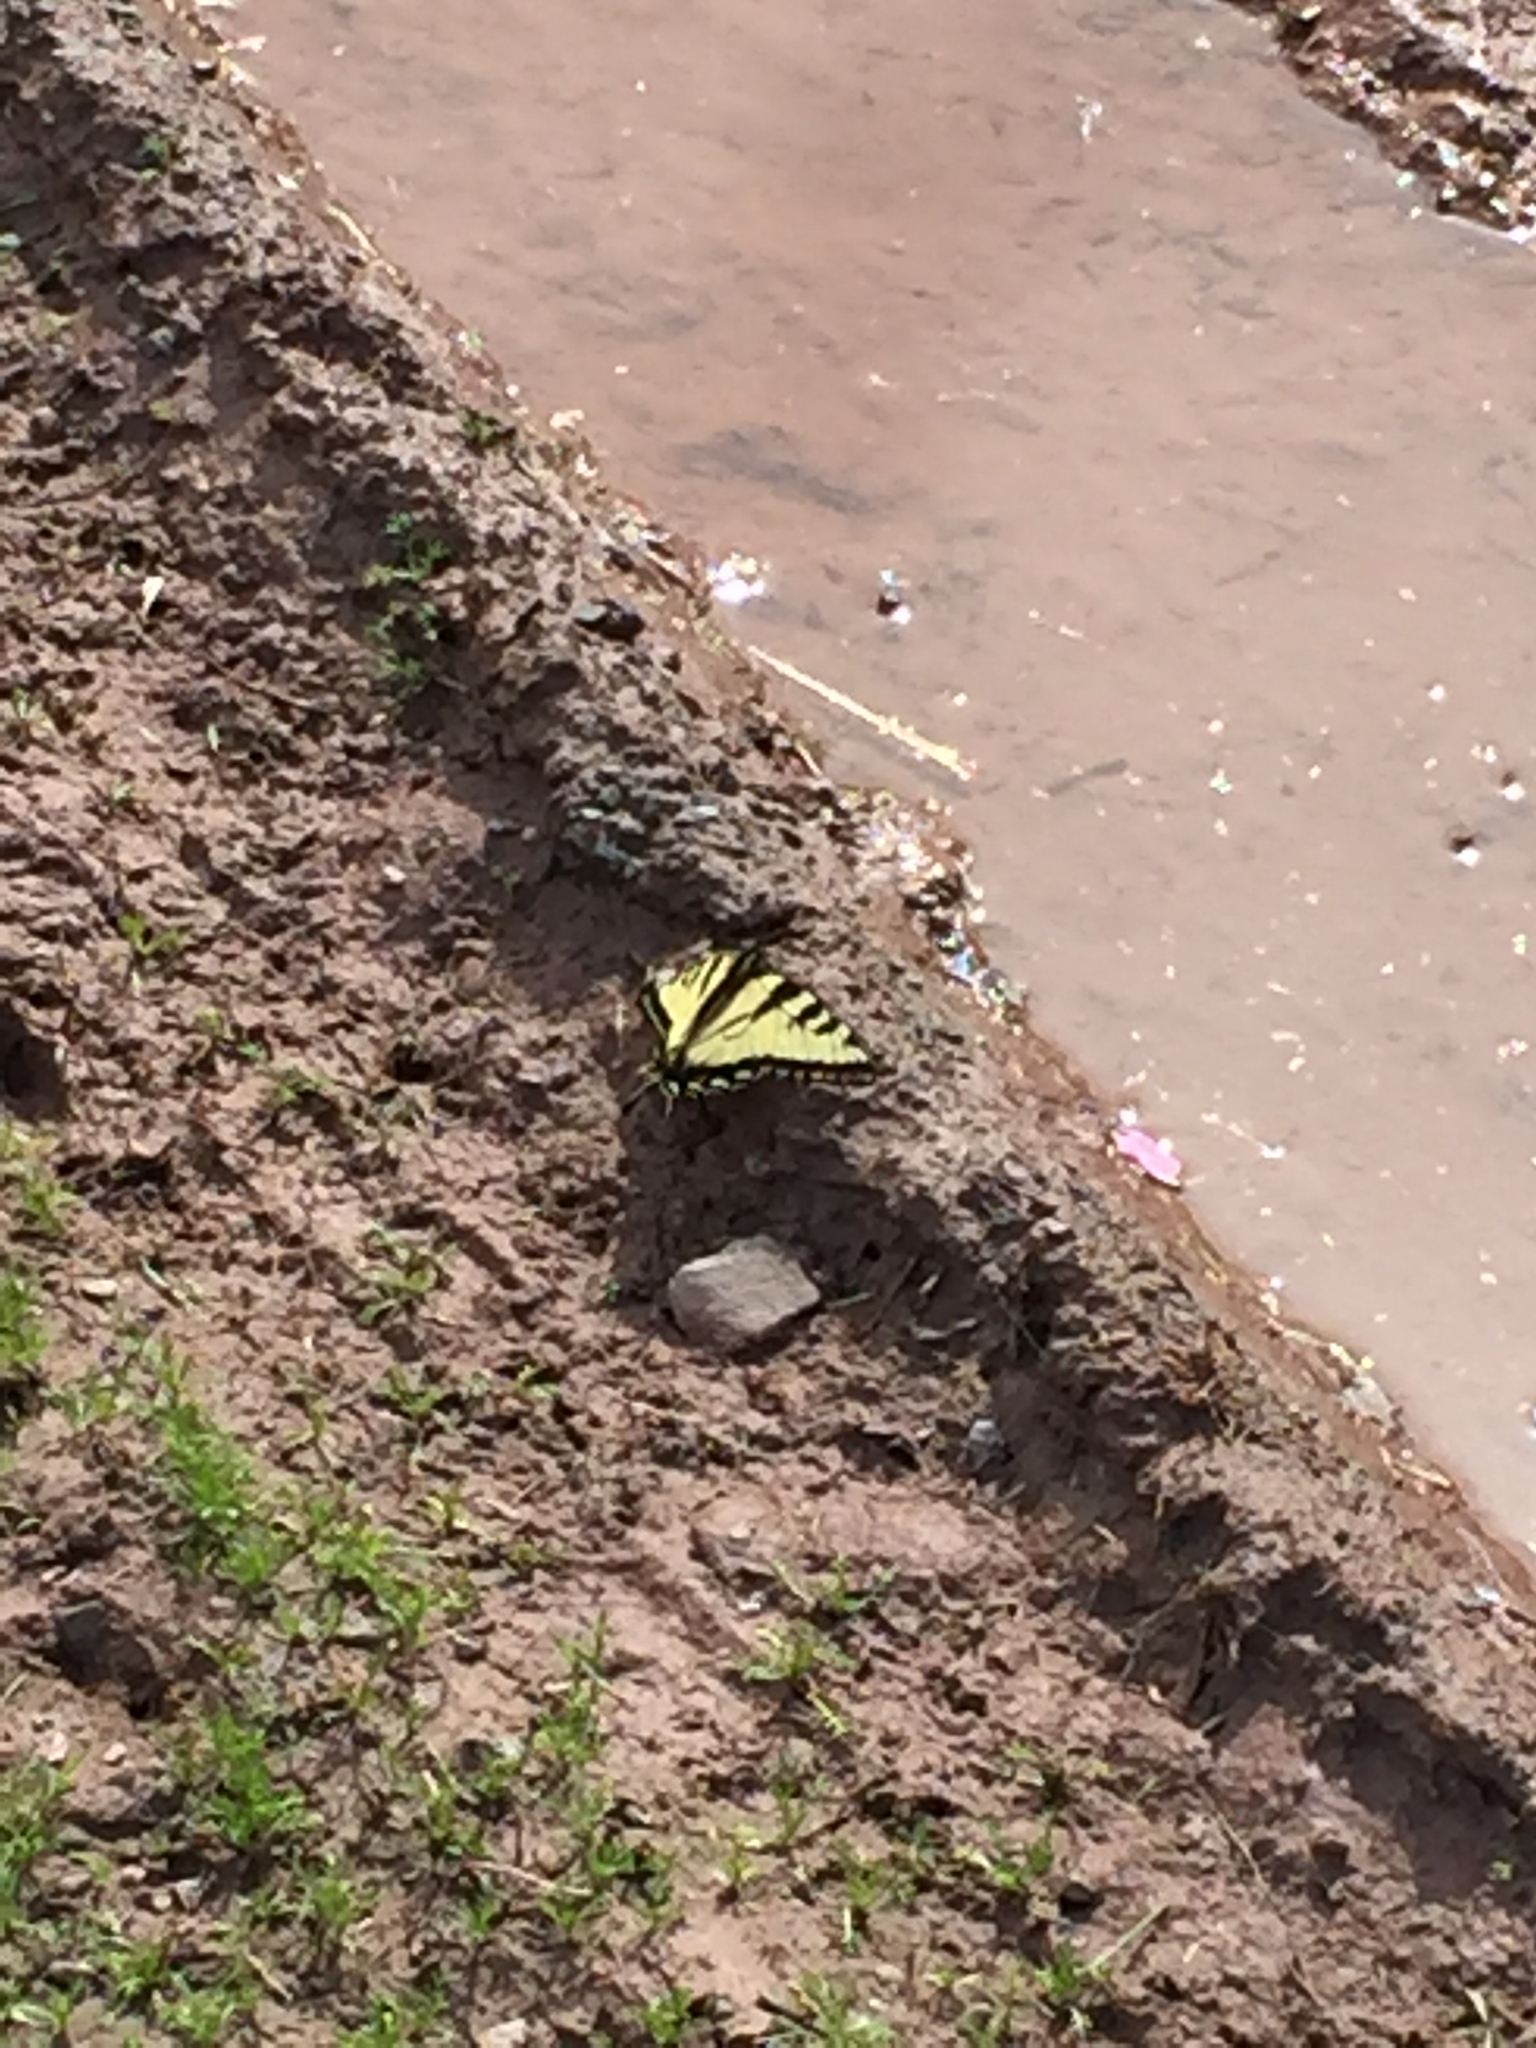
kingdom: Animalia
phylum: Arthropoda
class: Insecta
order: Lepidoptera
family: Papilionidae
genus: Papilio
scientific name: Papilio glaucus
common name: Tiger swallowtail
